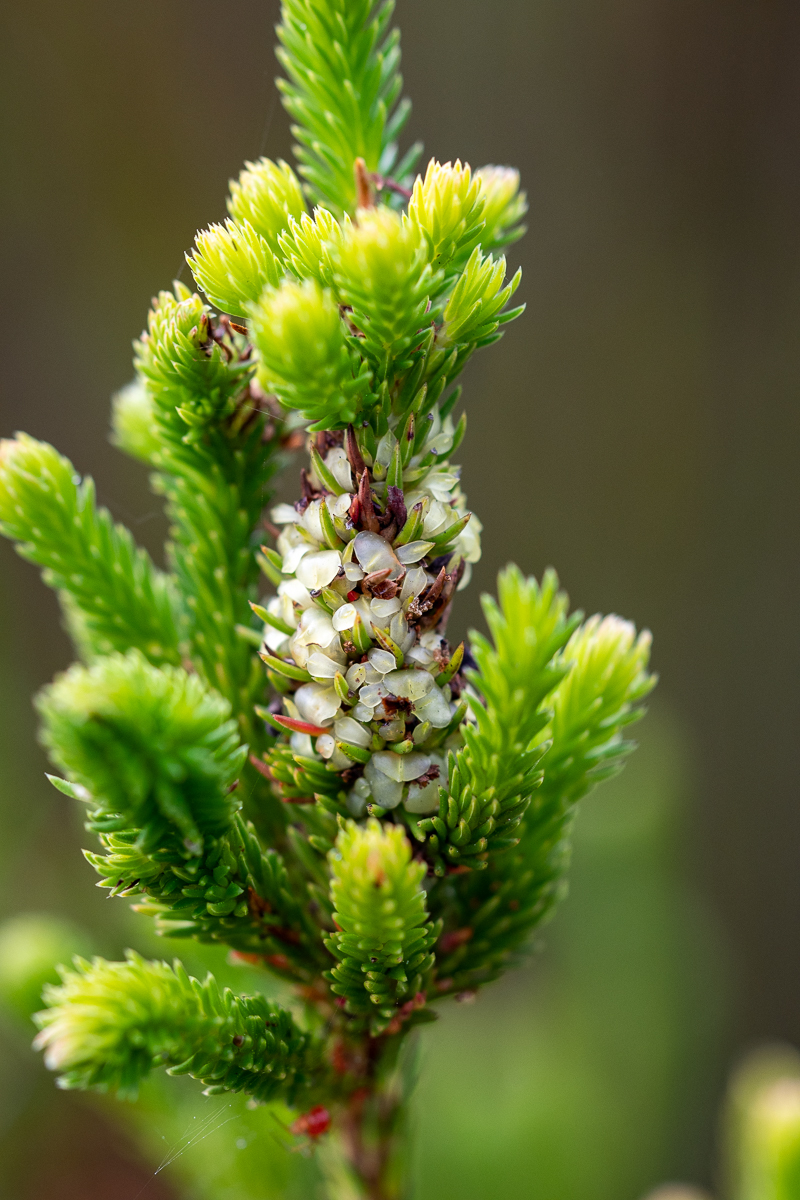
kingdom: Plantae
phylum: Tracheophyta
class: Magnoliopsida
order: Ericales
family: Ericaceae
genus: Erica
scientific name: Erica sessiliflora
